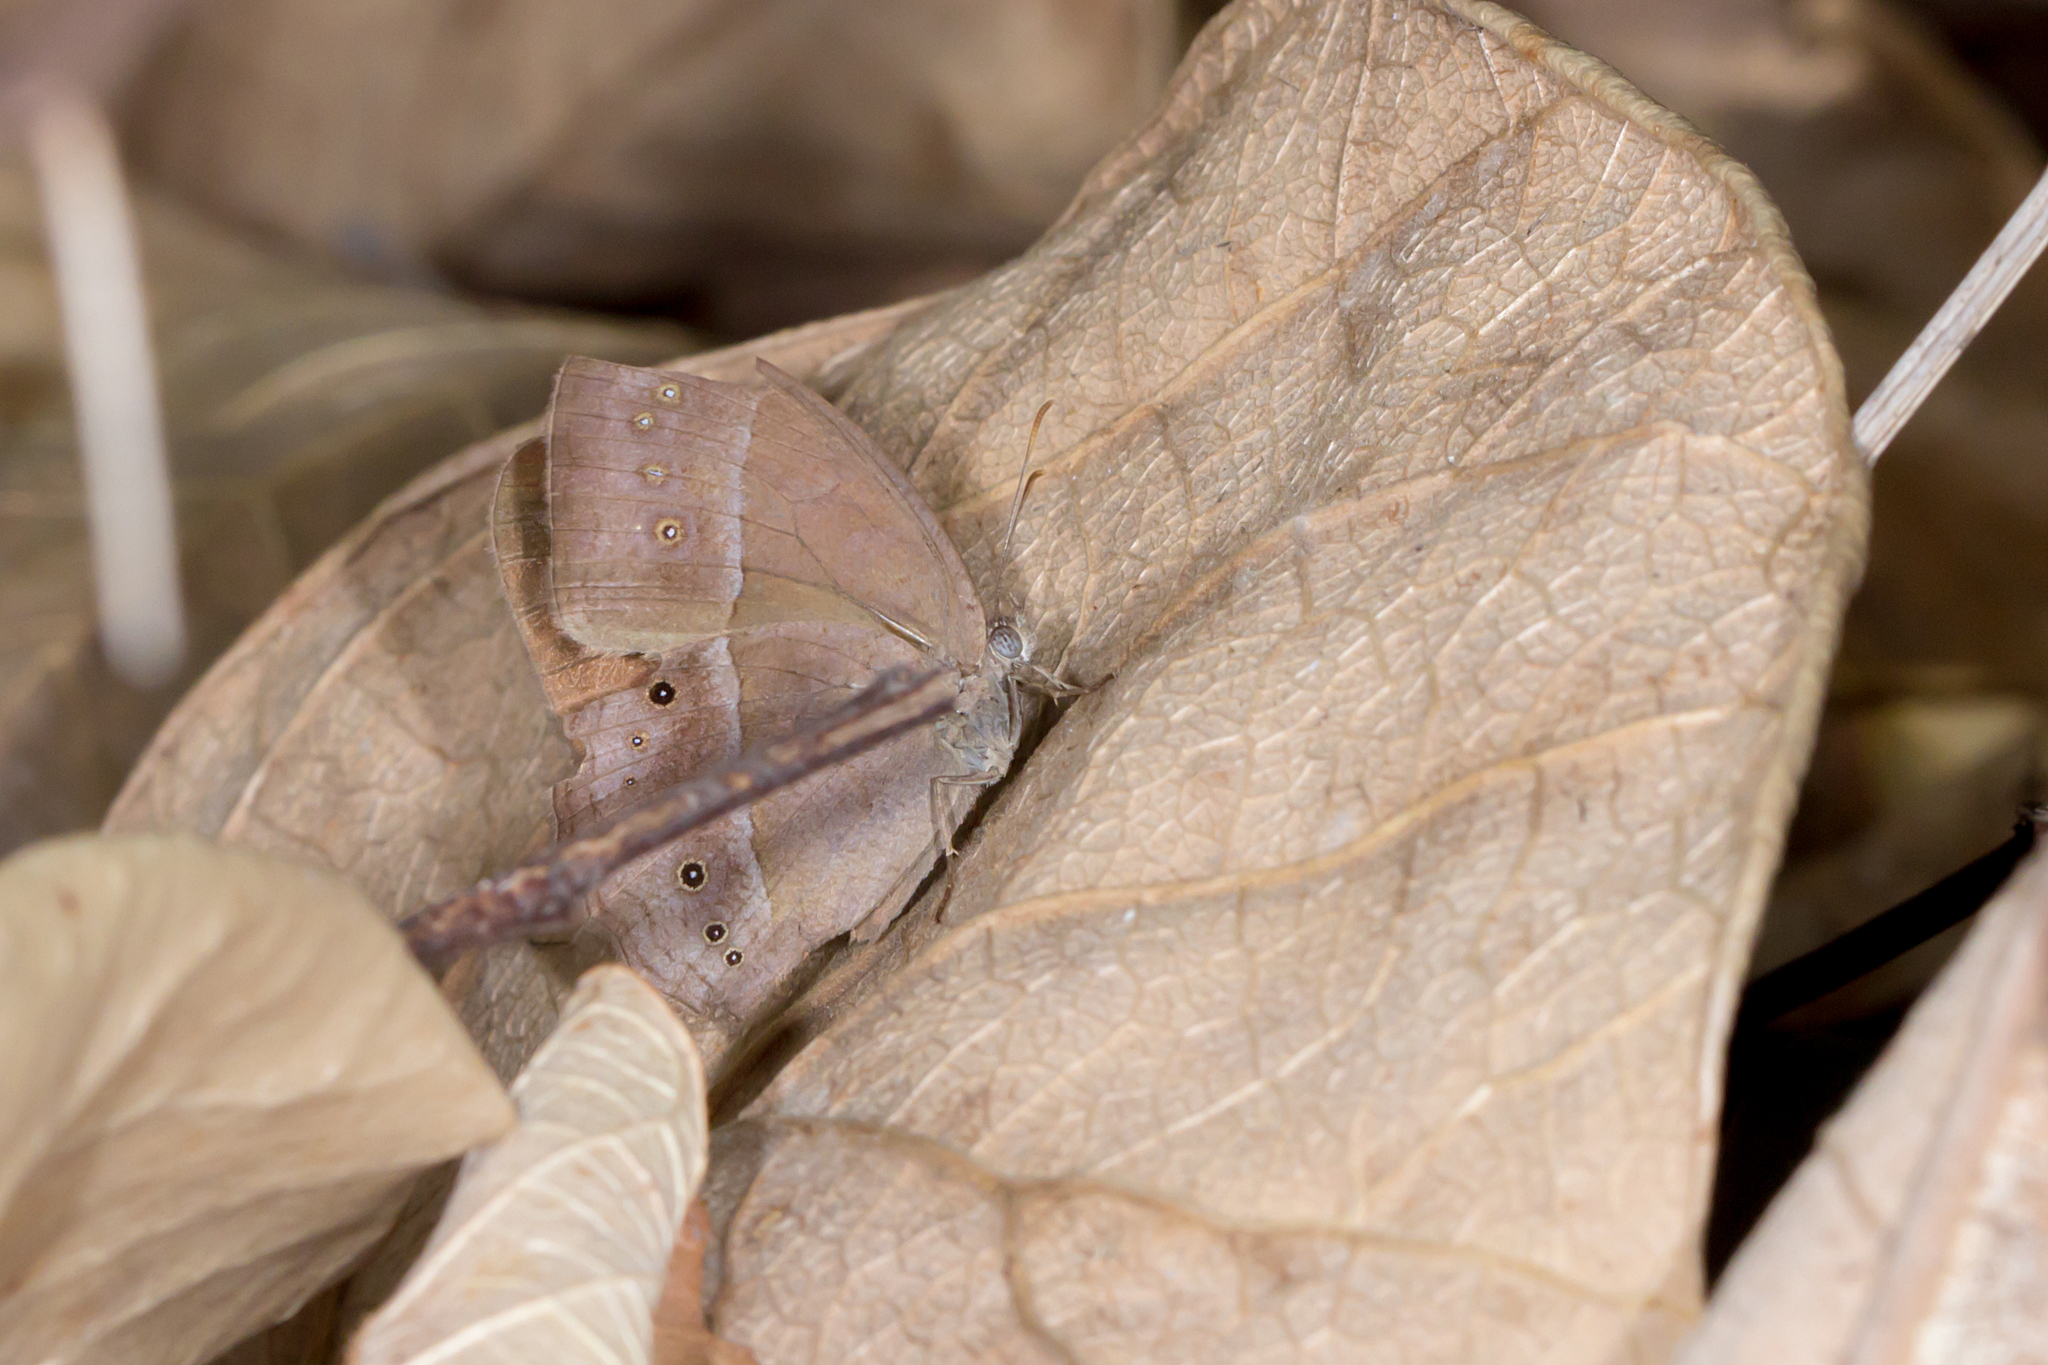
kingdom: Animalia
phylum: Arthropoda
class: Insecta
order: Lepidoptera
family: Nymphalidae
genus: Mycalesis
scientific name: Mycalesis perseus
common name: Dingy bushbrown
